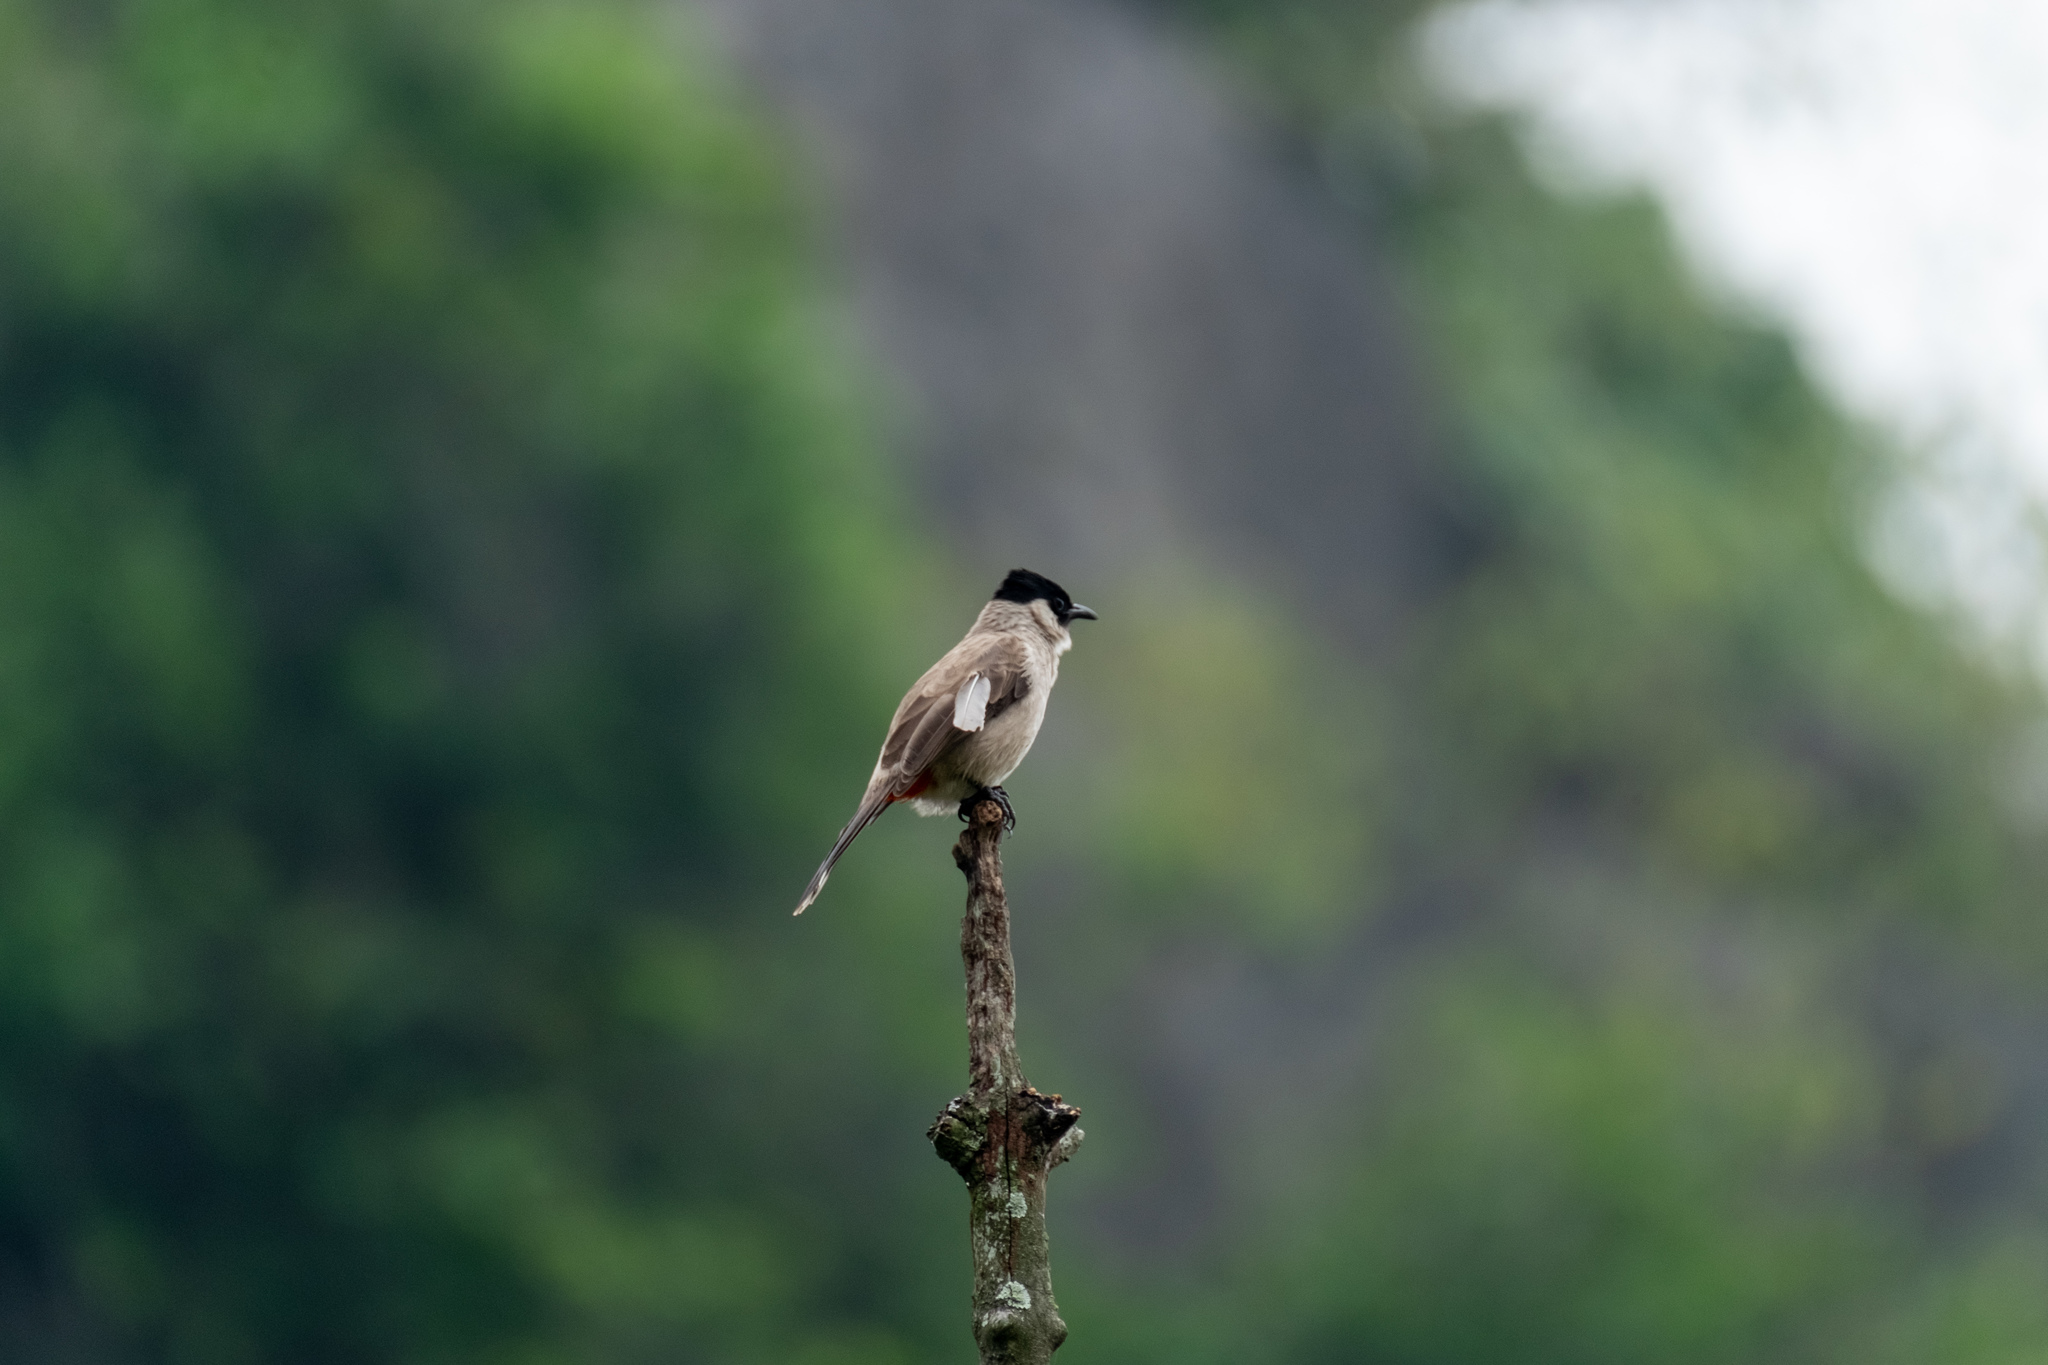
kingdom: Animalia
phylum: Chordata
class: Aves
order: Passeriformes
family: Pycnonotidae
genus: Pycnonotus
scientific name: Pycnonotus aurigaster
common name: Sooty-headed bulbul
